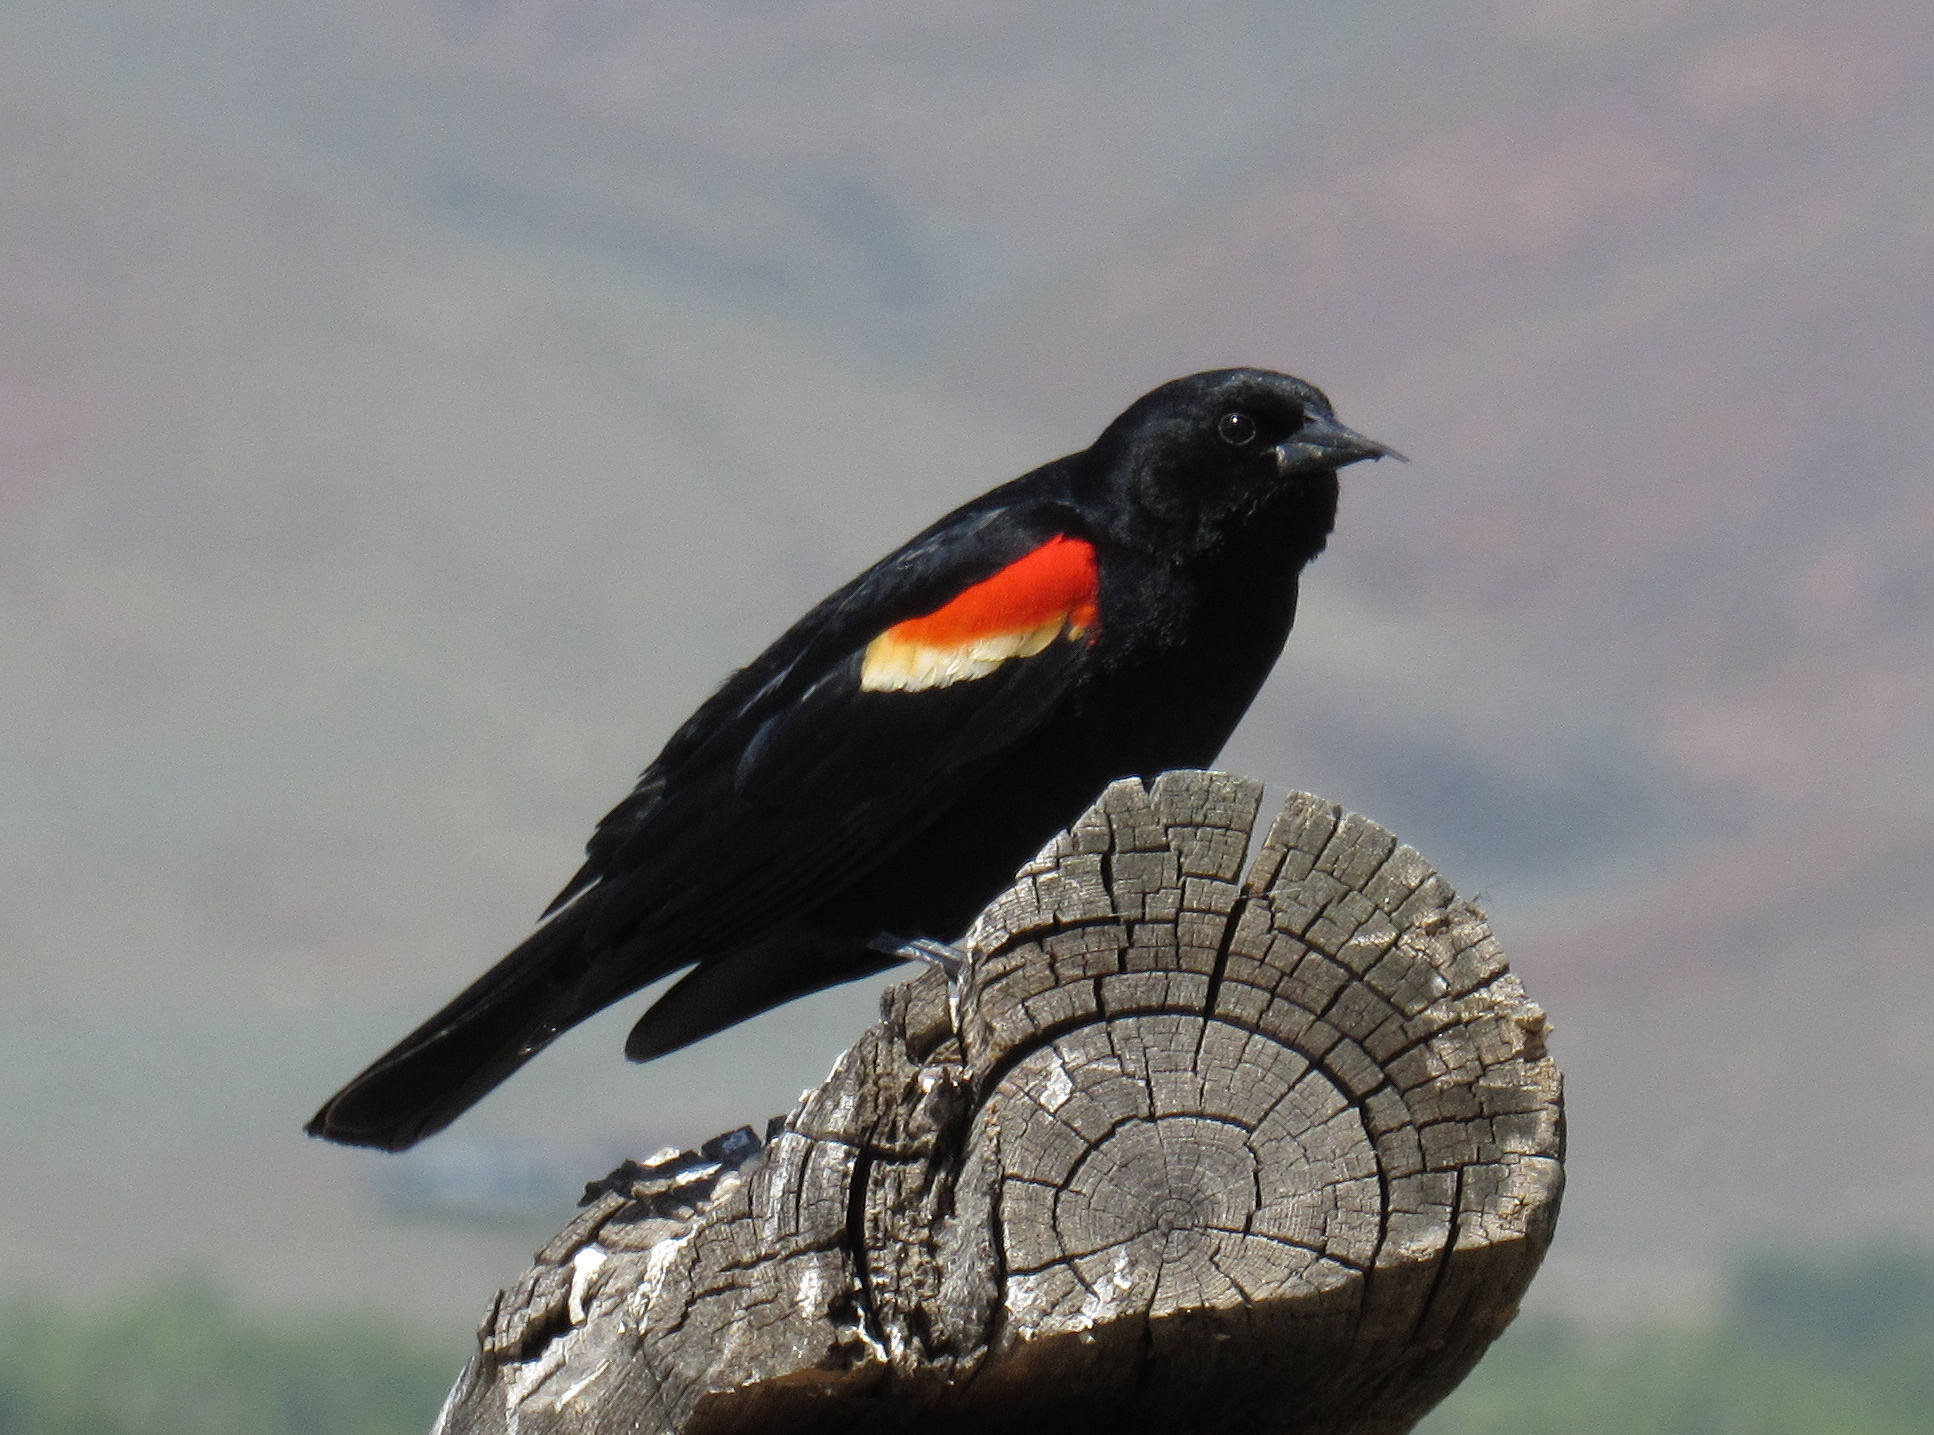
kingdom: Animalia
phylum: Chordata
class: Aves
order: Passeriformes
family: Icteridae
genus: Agelaius
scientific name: Agelaius phoeniceus
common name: Red-winged blackbird
